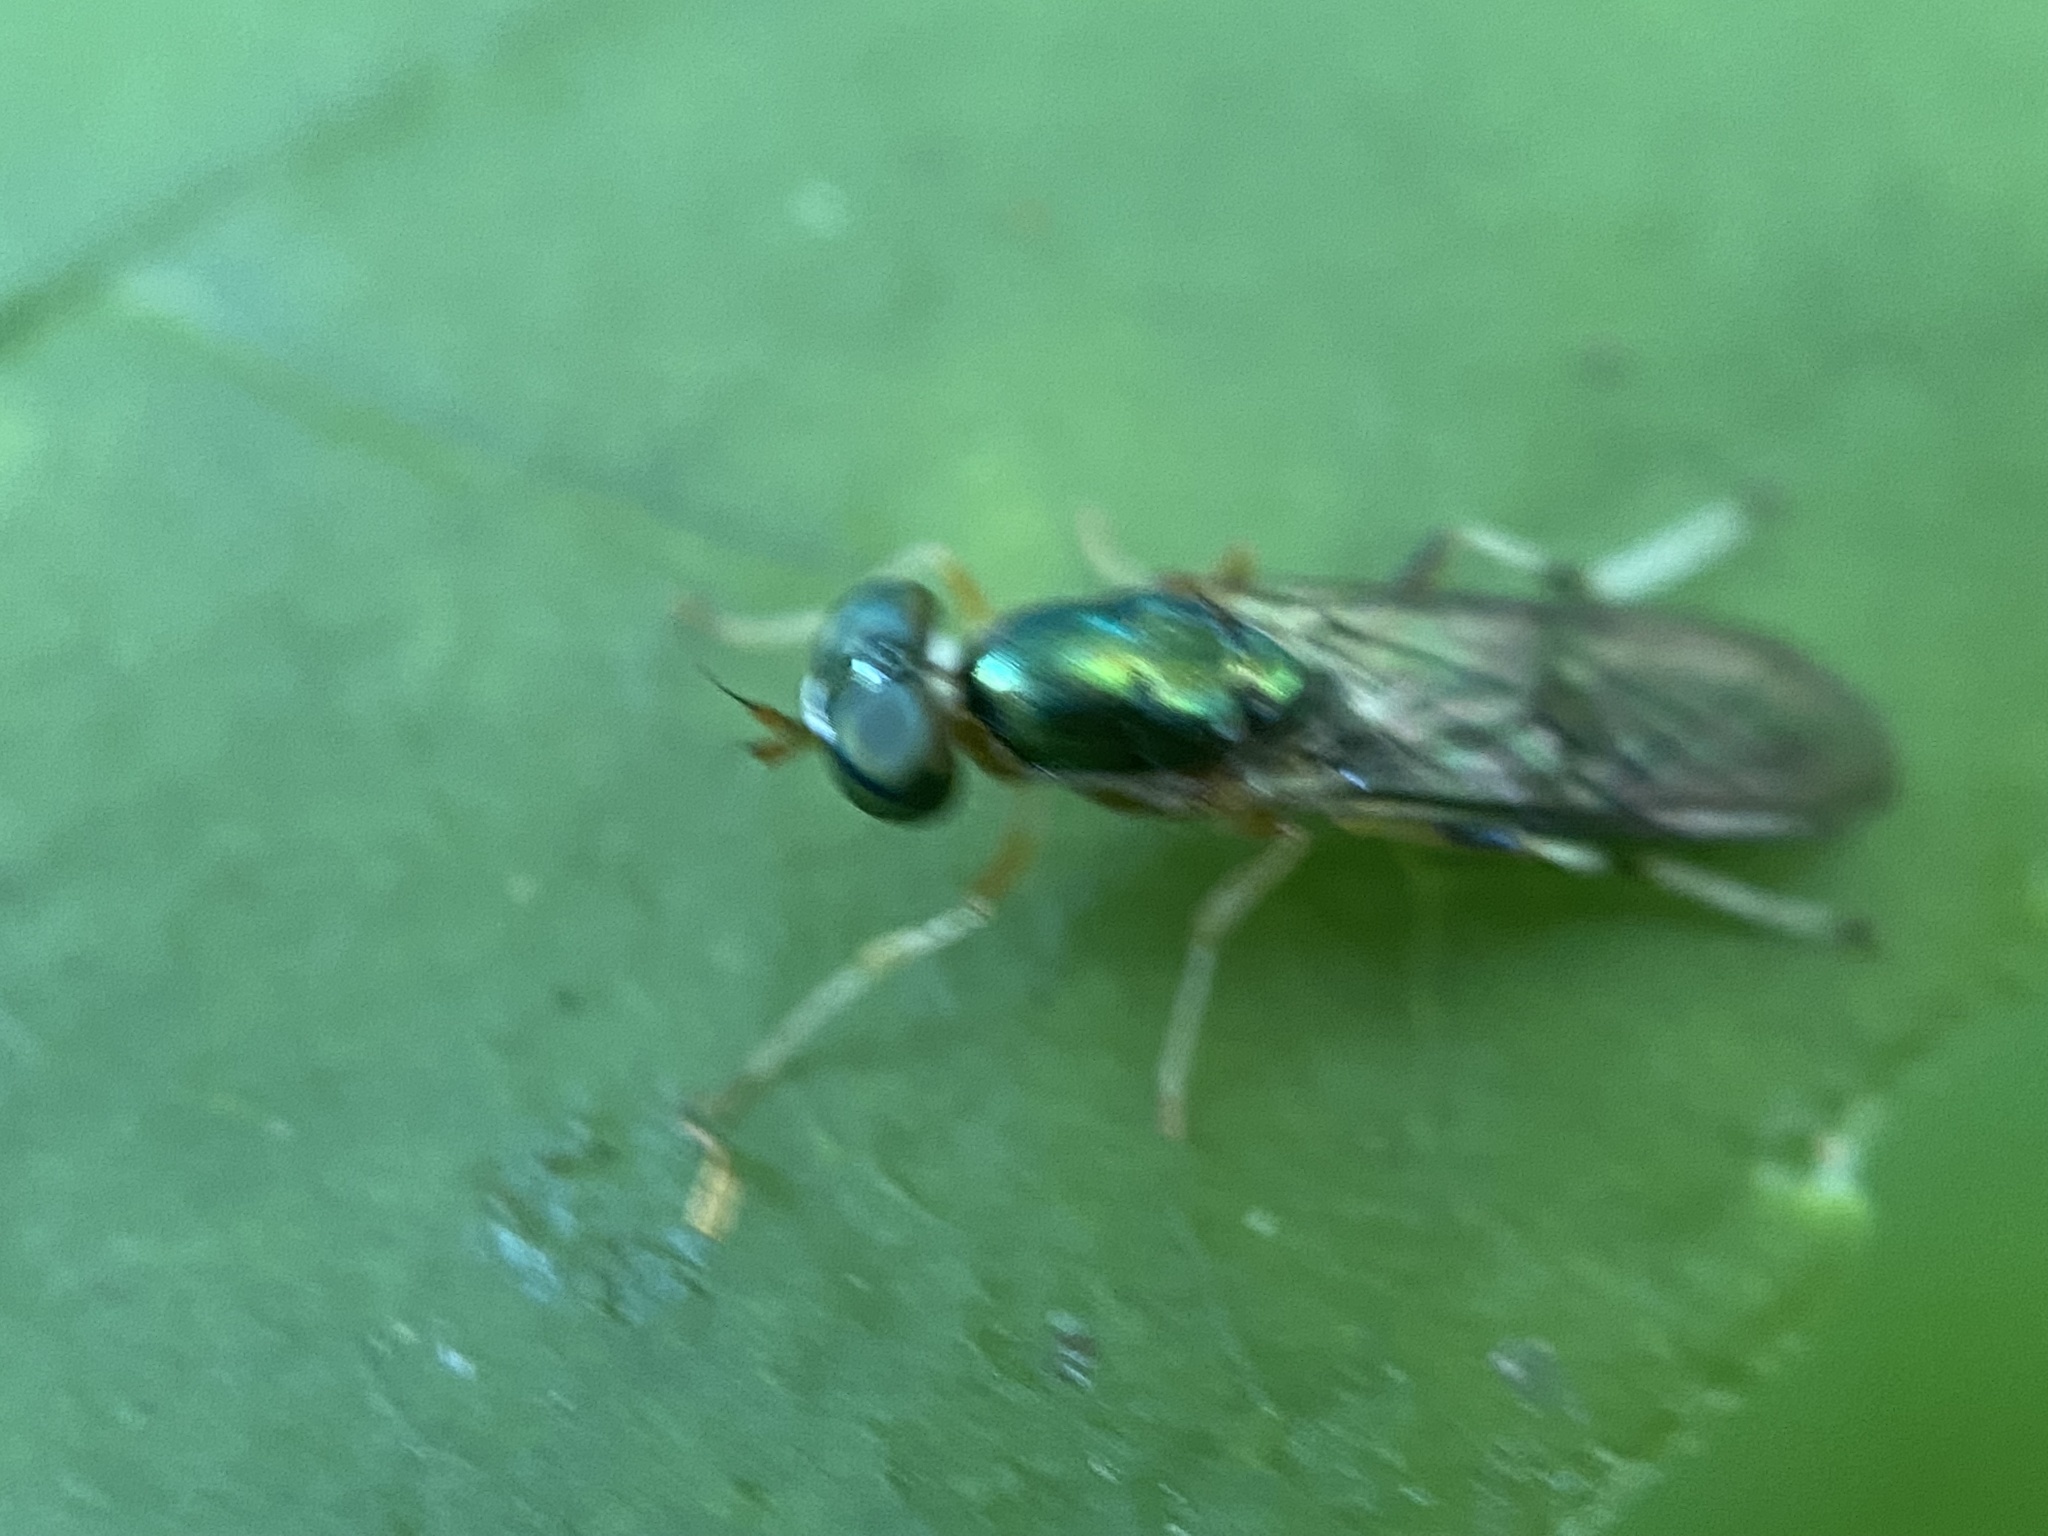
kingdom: Animalia
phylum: Arthropoda
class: Insecta
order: Diptera
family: Stratiomyidae
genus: Merosargus
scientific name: Merosargus caeruleifrons
